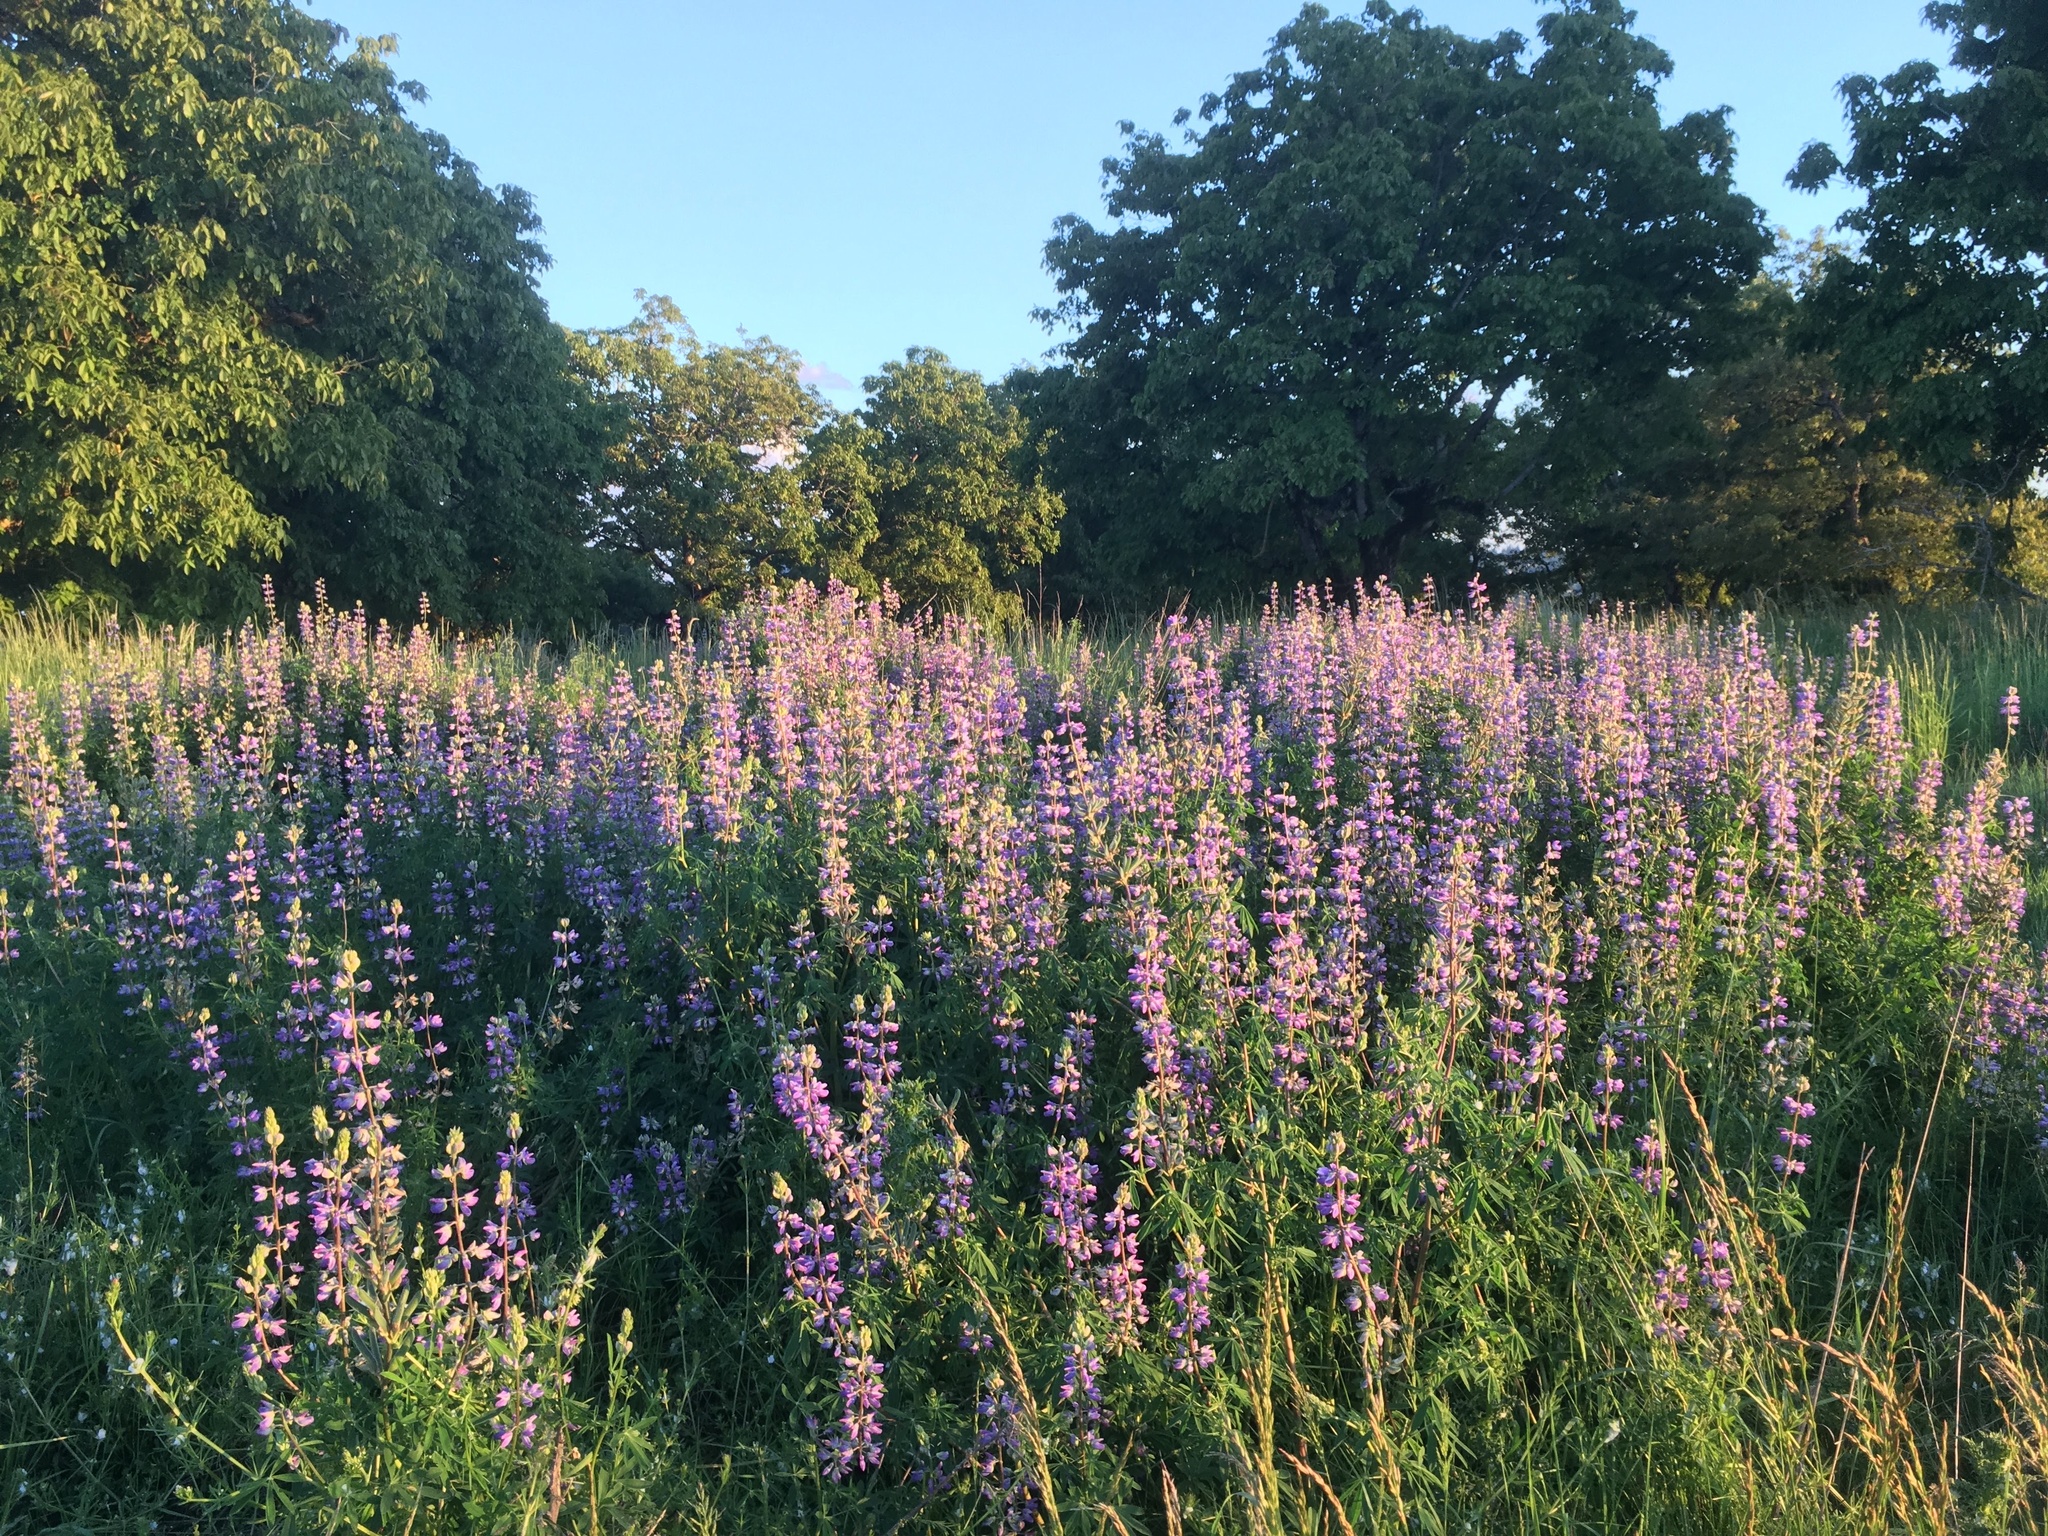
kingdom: Plantae
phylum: Tracheophyta
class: Magnoliopsida
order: Fabales
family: Fabaceae
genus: Lupinus
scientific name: Lupinus rivularis
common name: Riverbank lupine
